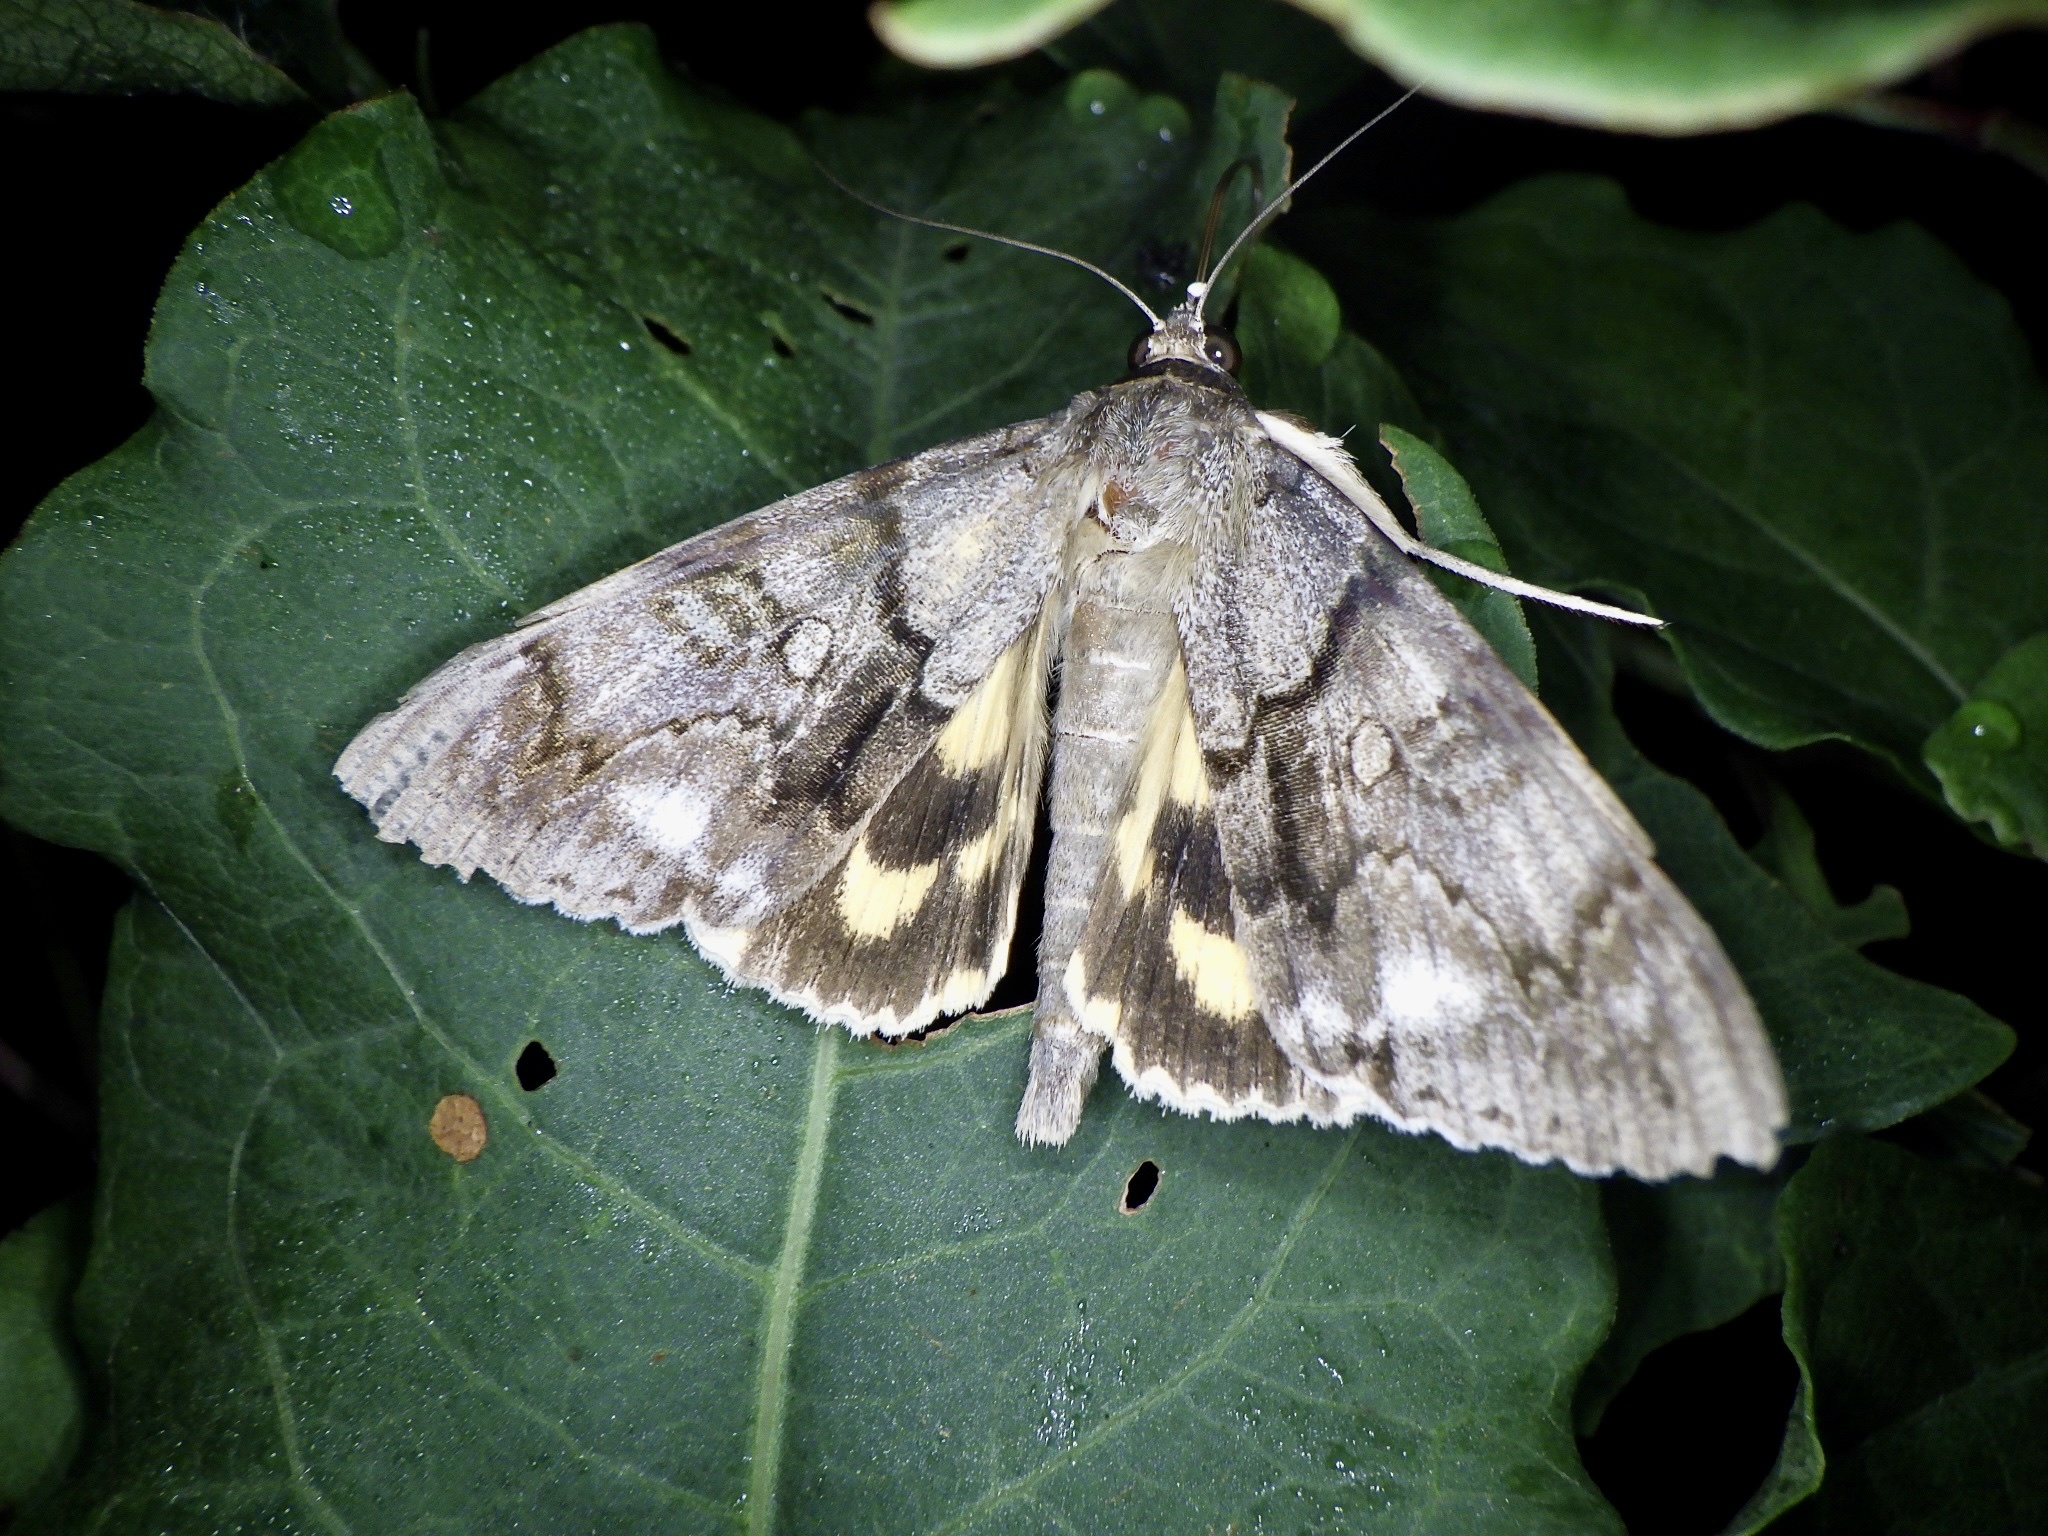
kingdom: Animalia
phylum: Arthropoda
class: Insecta
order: Lepidoptera
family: Erebidae
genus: Catocala
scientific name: Catocala jonasii
